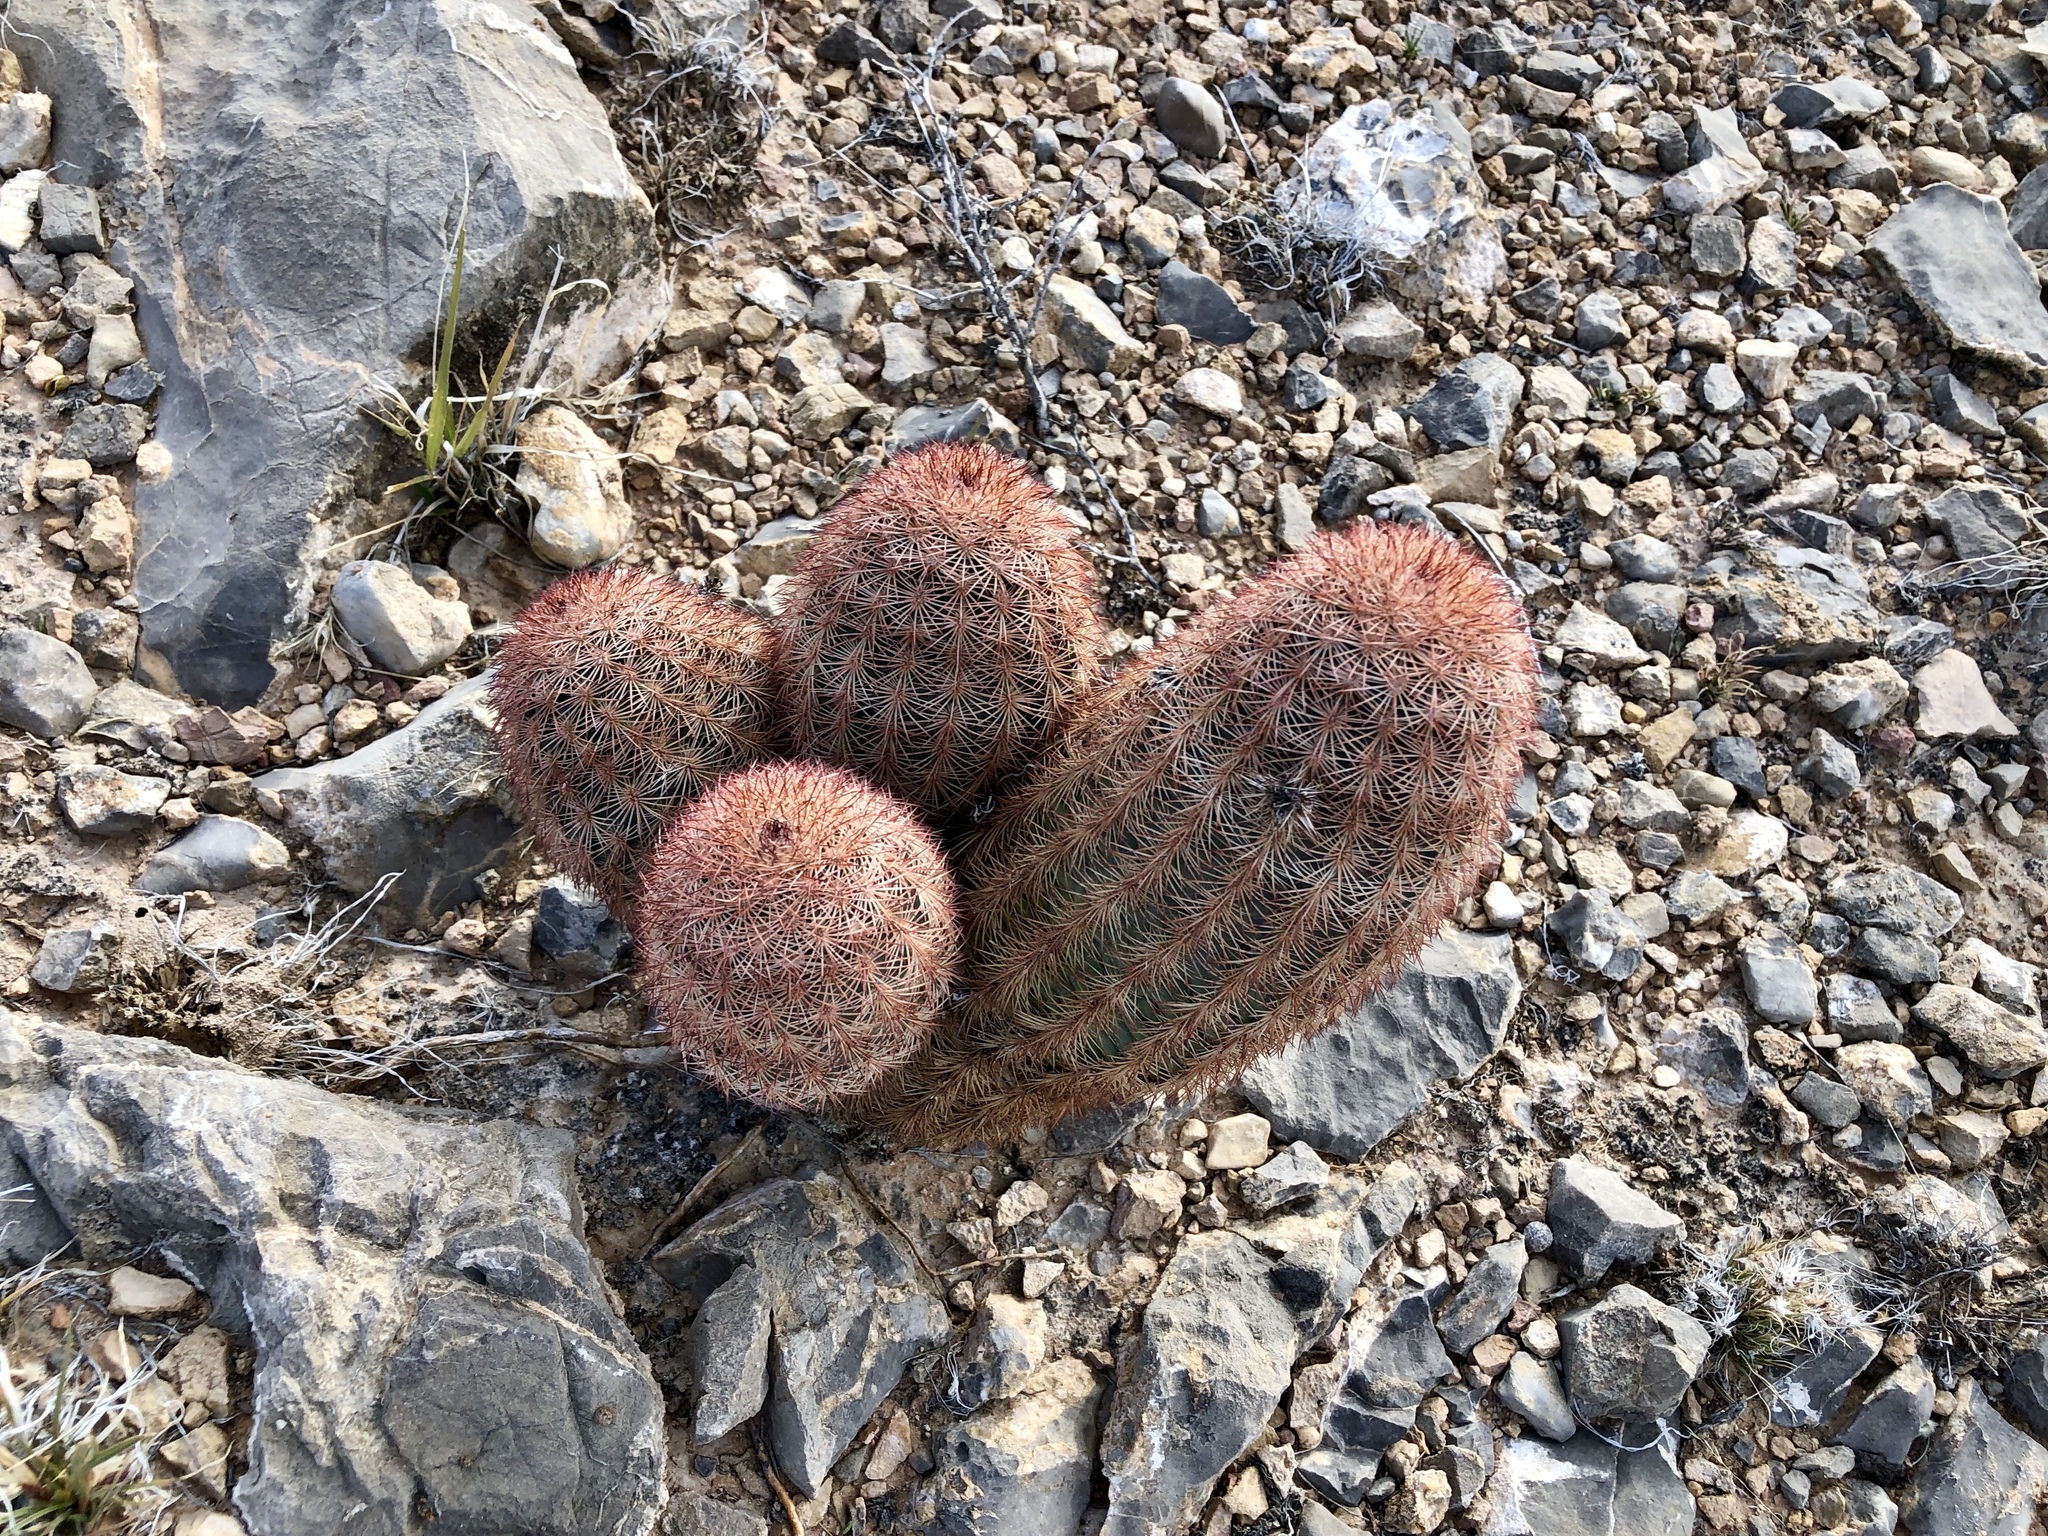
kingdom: Plantae
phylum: Tracheophyta
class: Magnoliopsida
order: Caryophyllales
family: Cactaceae
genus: Echinocereus
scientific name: Echinocereus dasyacanthus
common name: Spiny hedgehog cactus
